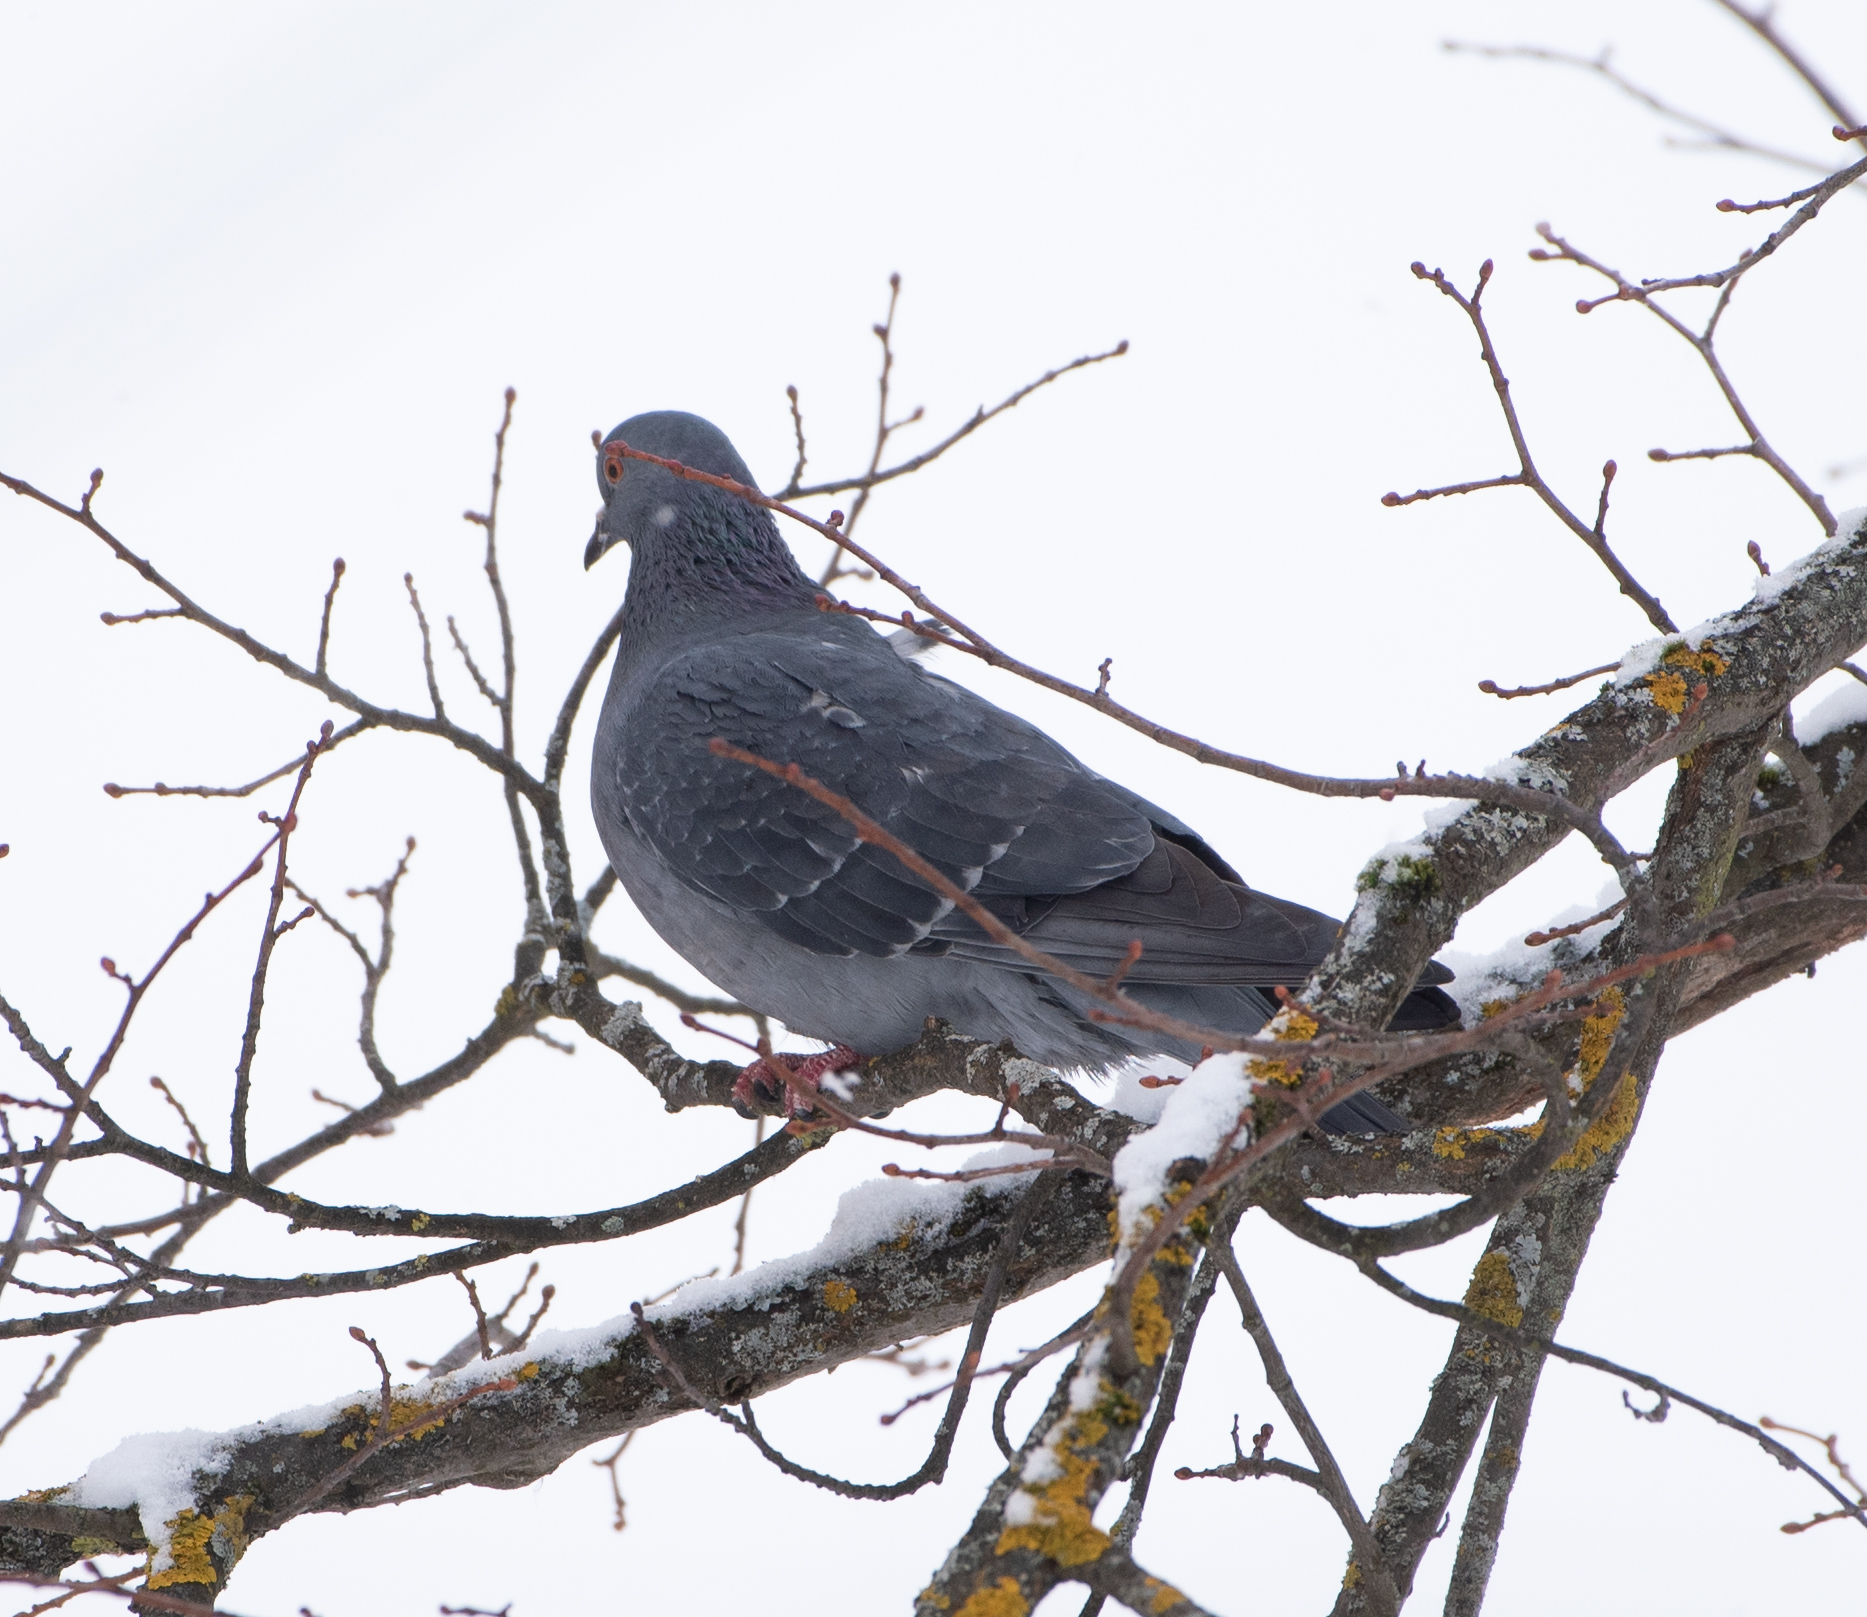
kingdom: Animalia
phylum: Chordata
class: Aves
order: Columbiformes
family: Columbidae
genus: Columba
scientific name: Columba livia
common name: Rock pigeon
